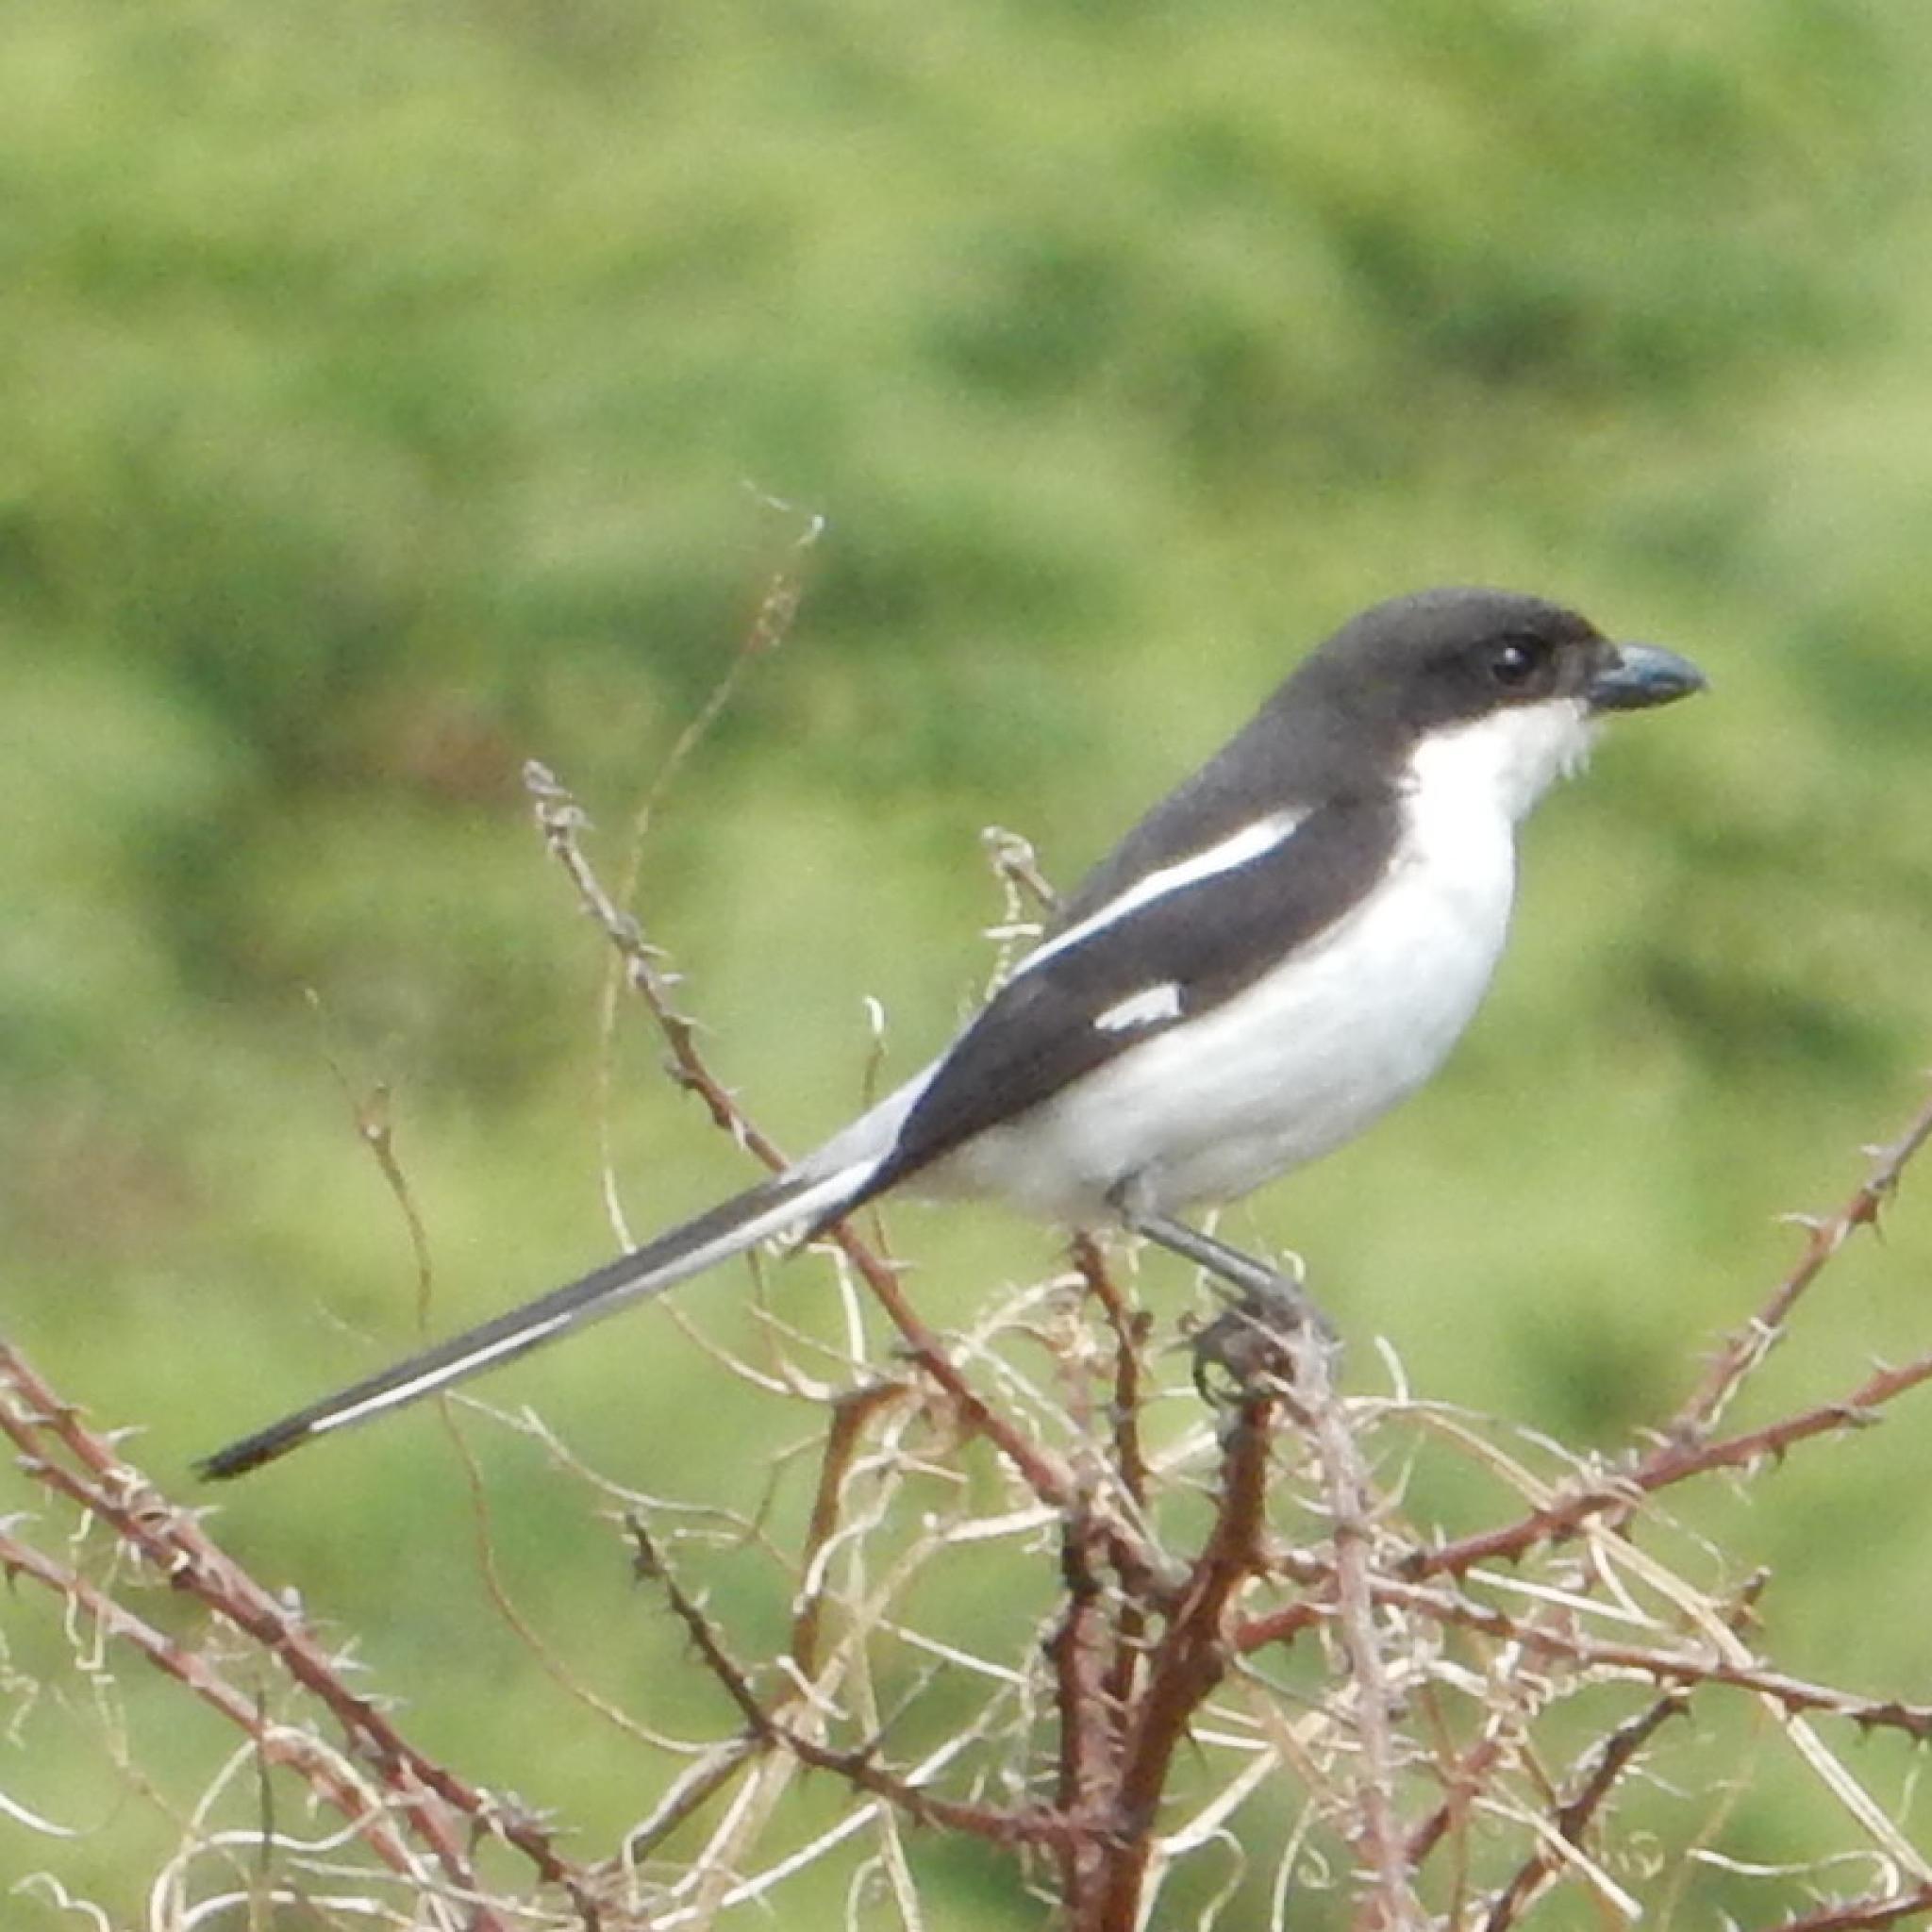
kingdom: Animalia
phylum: Chordata
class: Aves
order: Passeriformes
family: Laniidae
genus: Lanius
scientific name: Lanius collaris
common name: Southern fiscal
